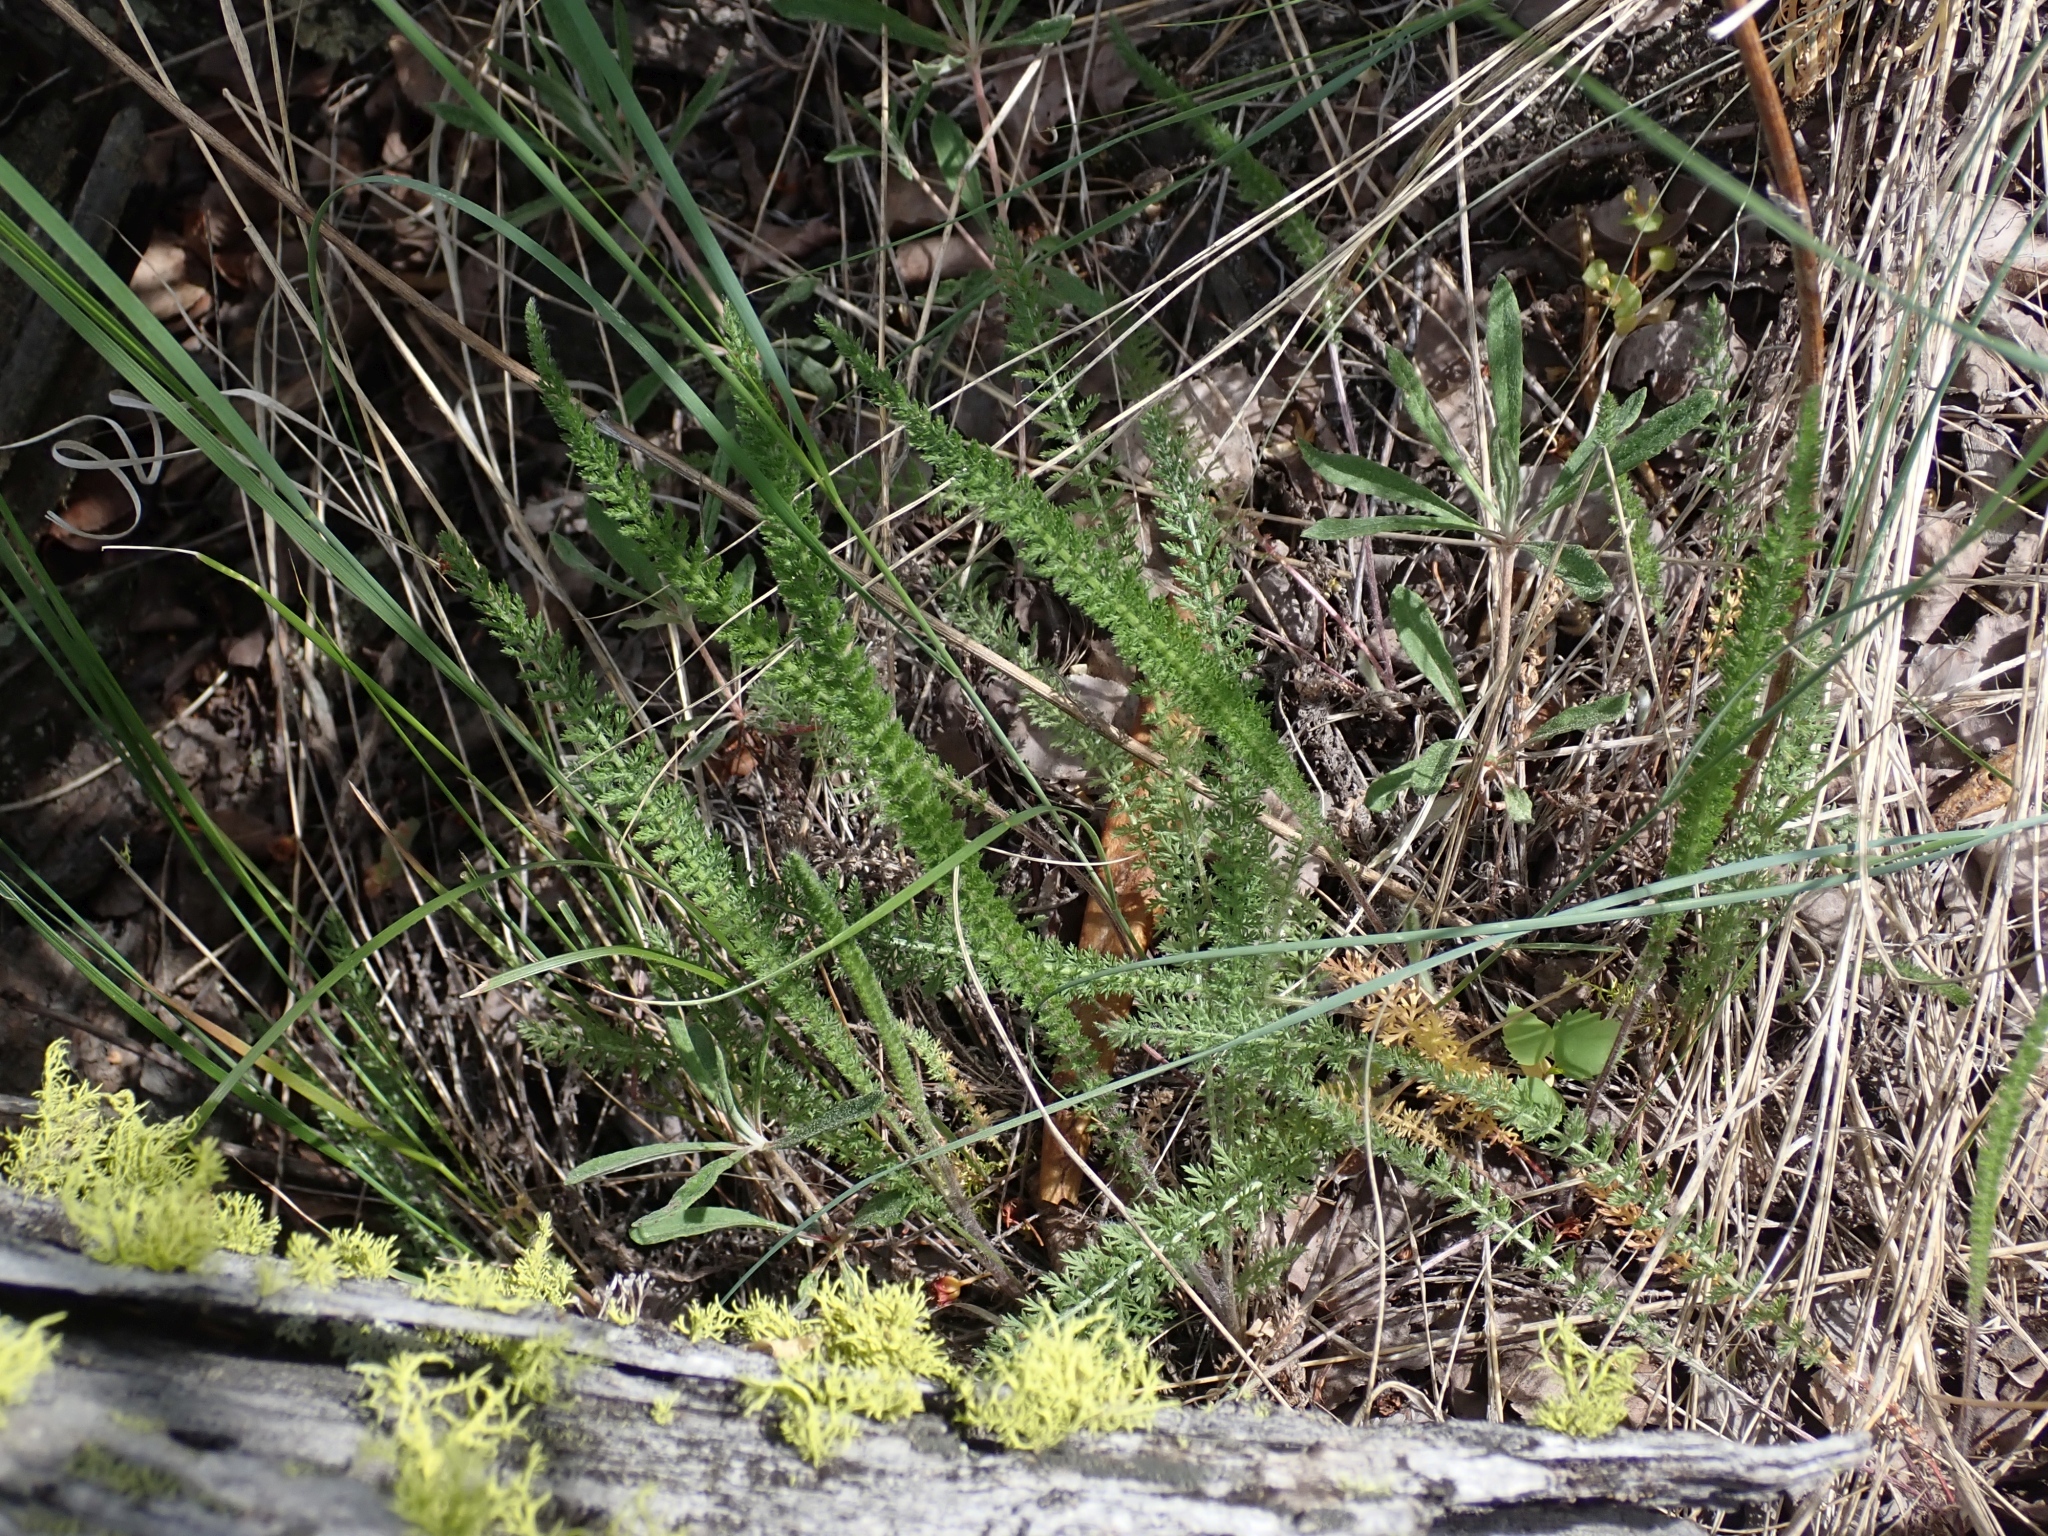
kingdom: Plantae
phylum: Tracheophyta
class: Magnoliopsida
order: Asterales
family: Asteraceae
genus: Achillea
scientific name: Achillea millefolium
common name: Yarrow
